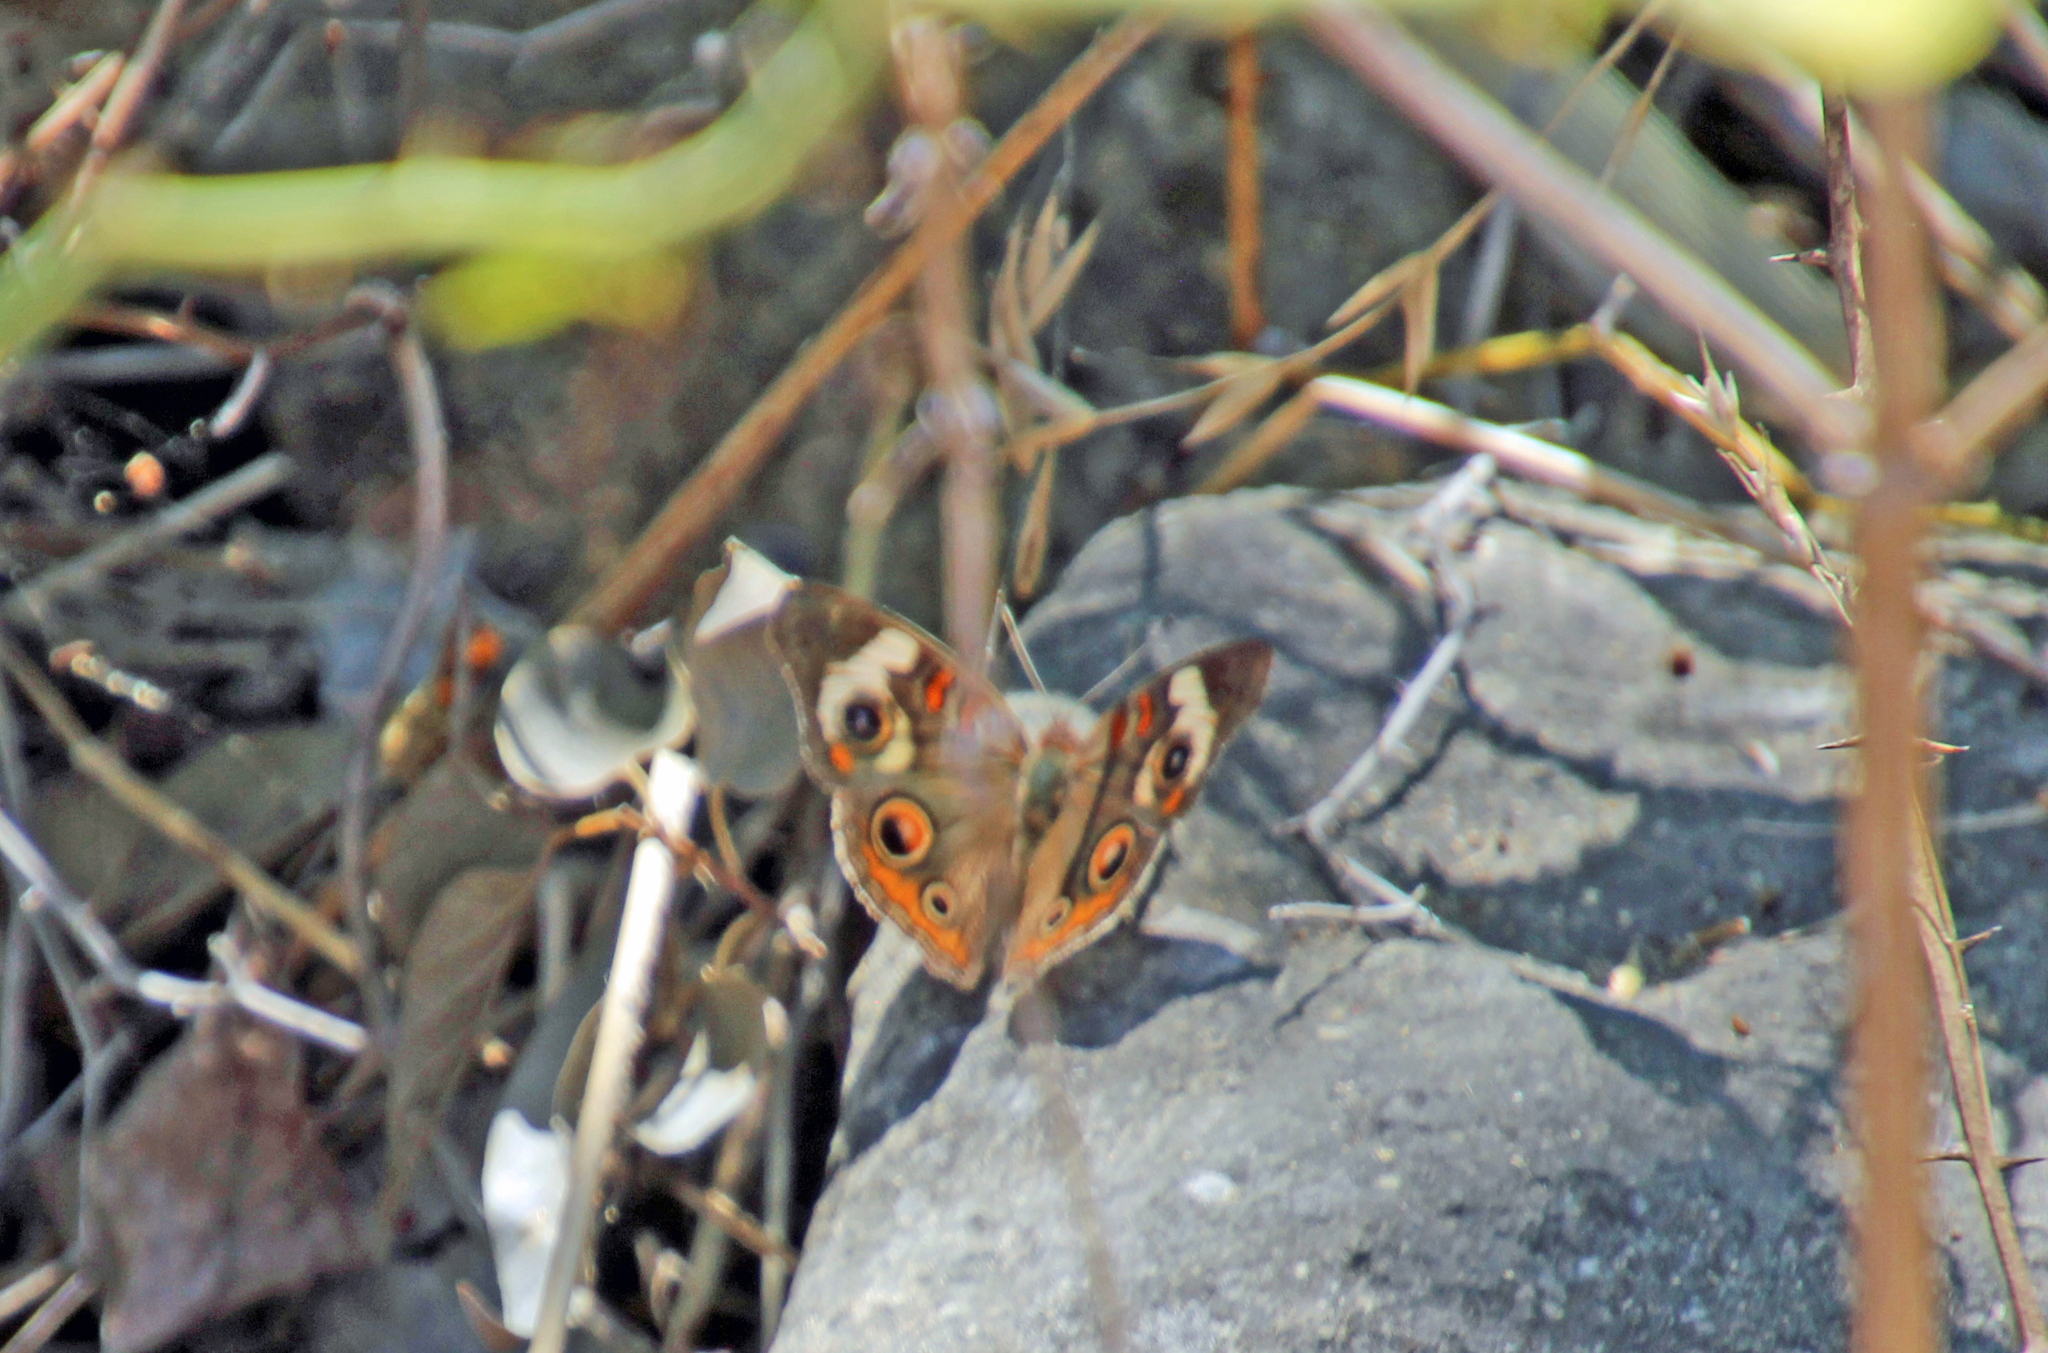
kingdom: Animalia
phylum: Arthropoda
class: Insecta
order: Lepidoptera
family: Nymphalidae
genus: Junonia
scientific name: Junonia coenia
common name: Common buckeye
